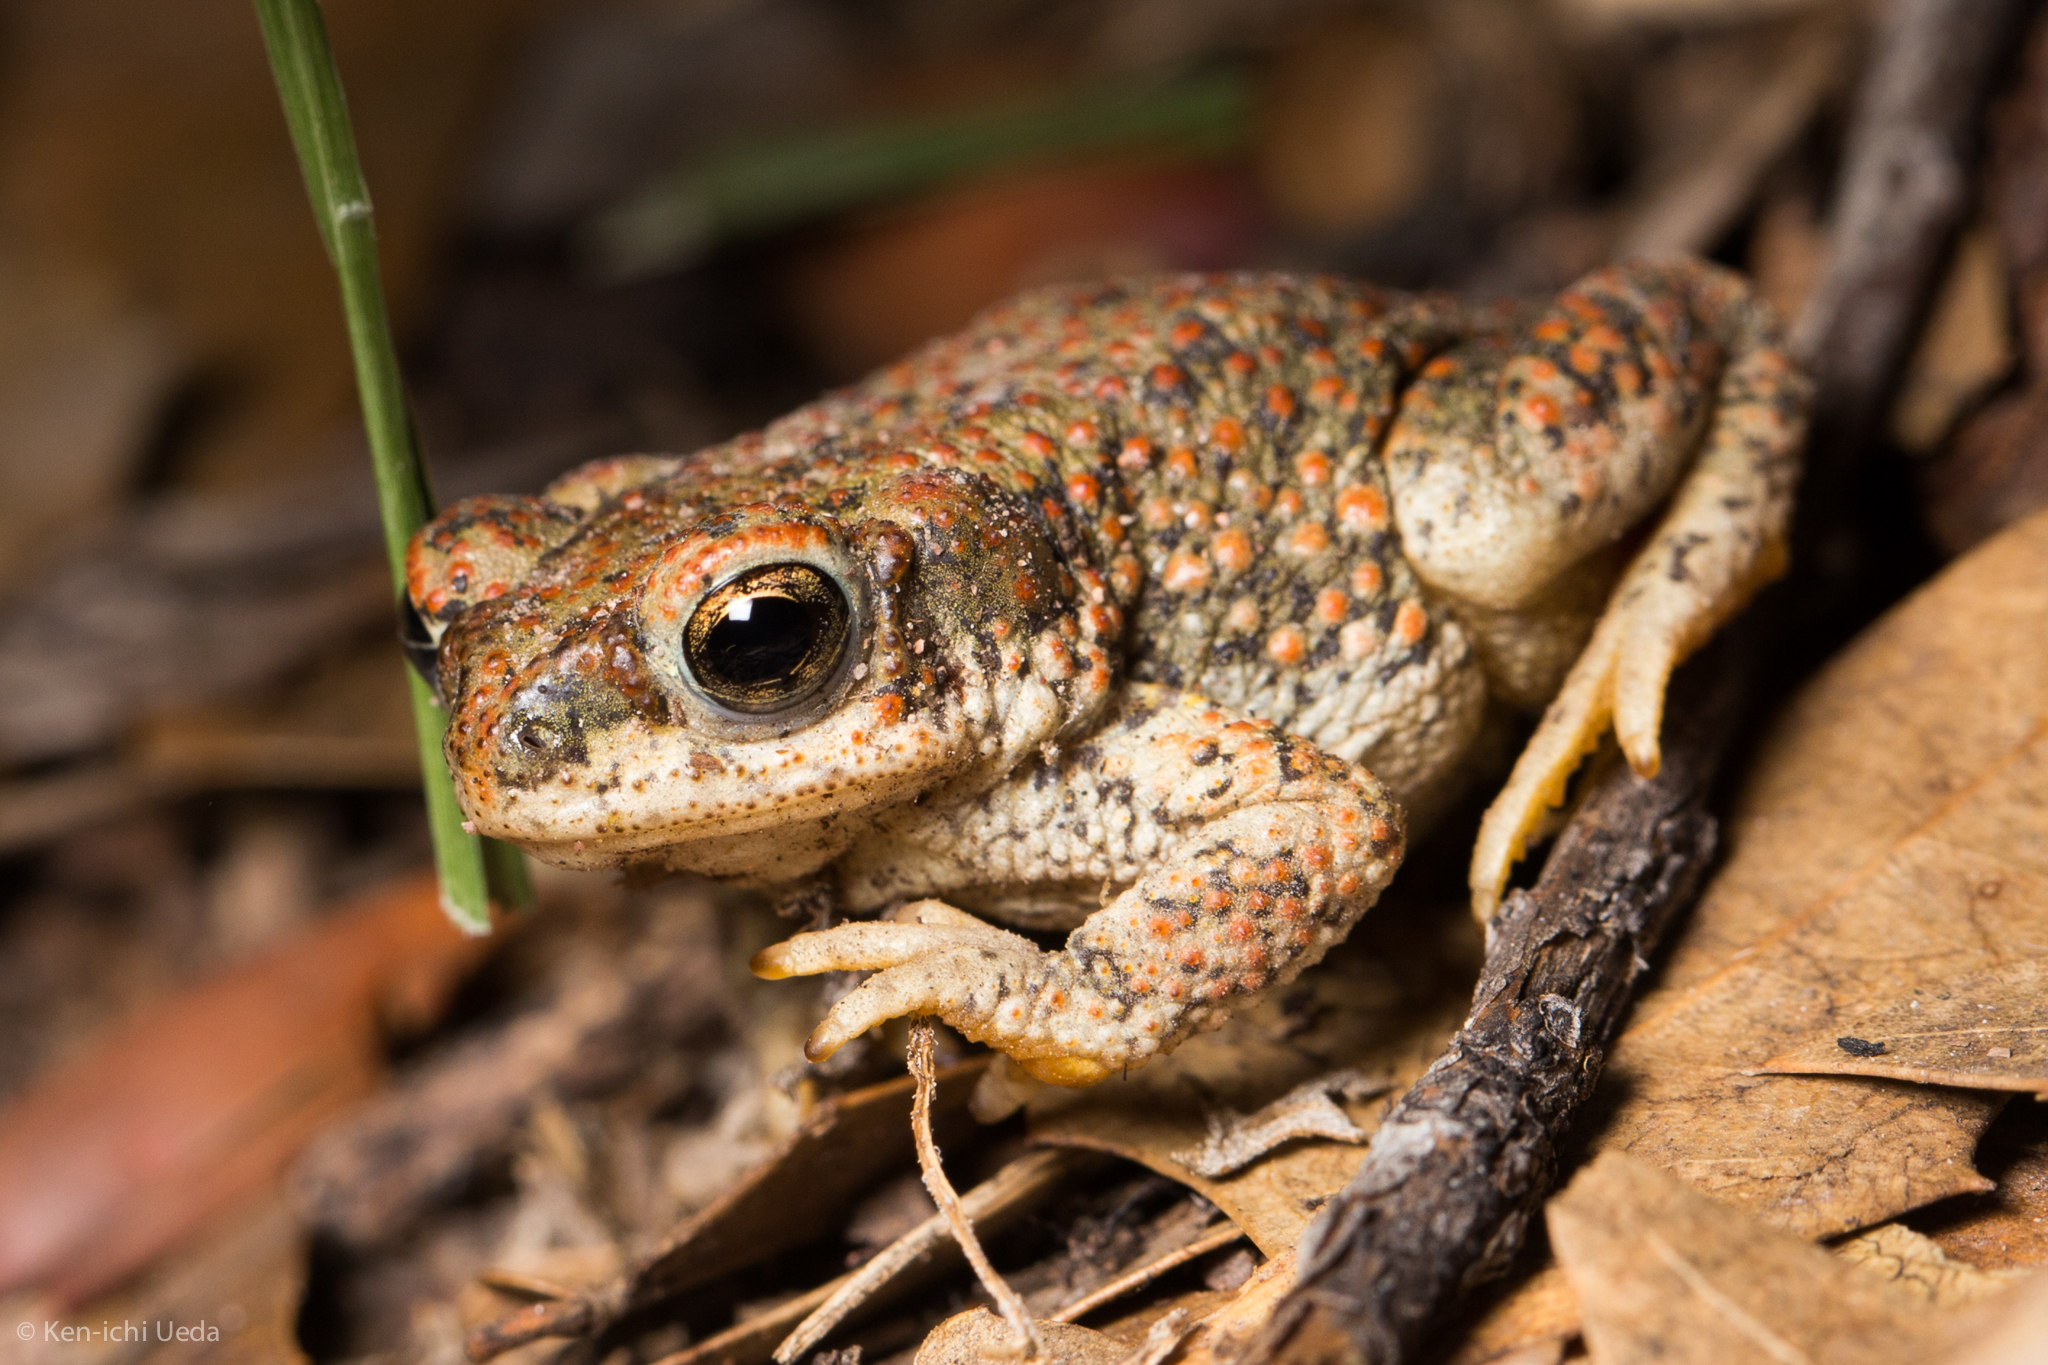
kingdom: Animalia
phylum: Chordata
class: Amphibia
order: Anura
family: Bufonidae
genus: Anaxyrus
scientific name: Anaxyrus punctatus
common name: Red-spotted toad
